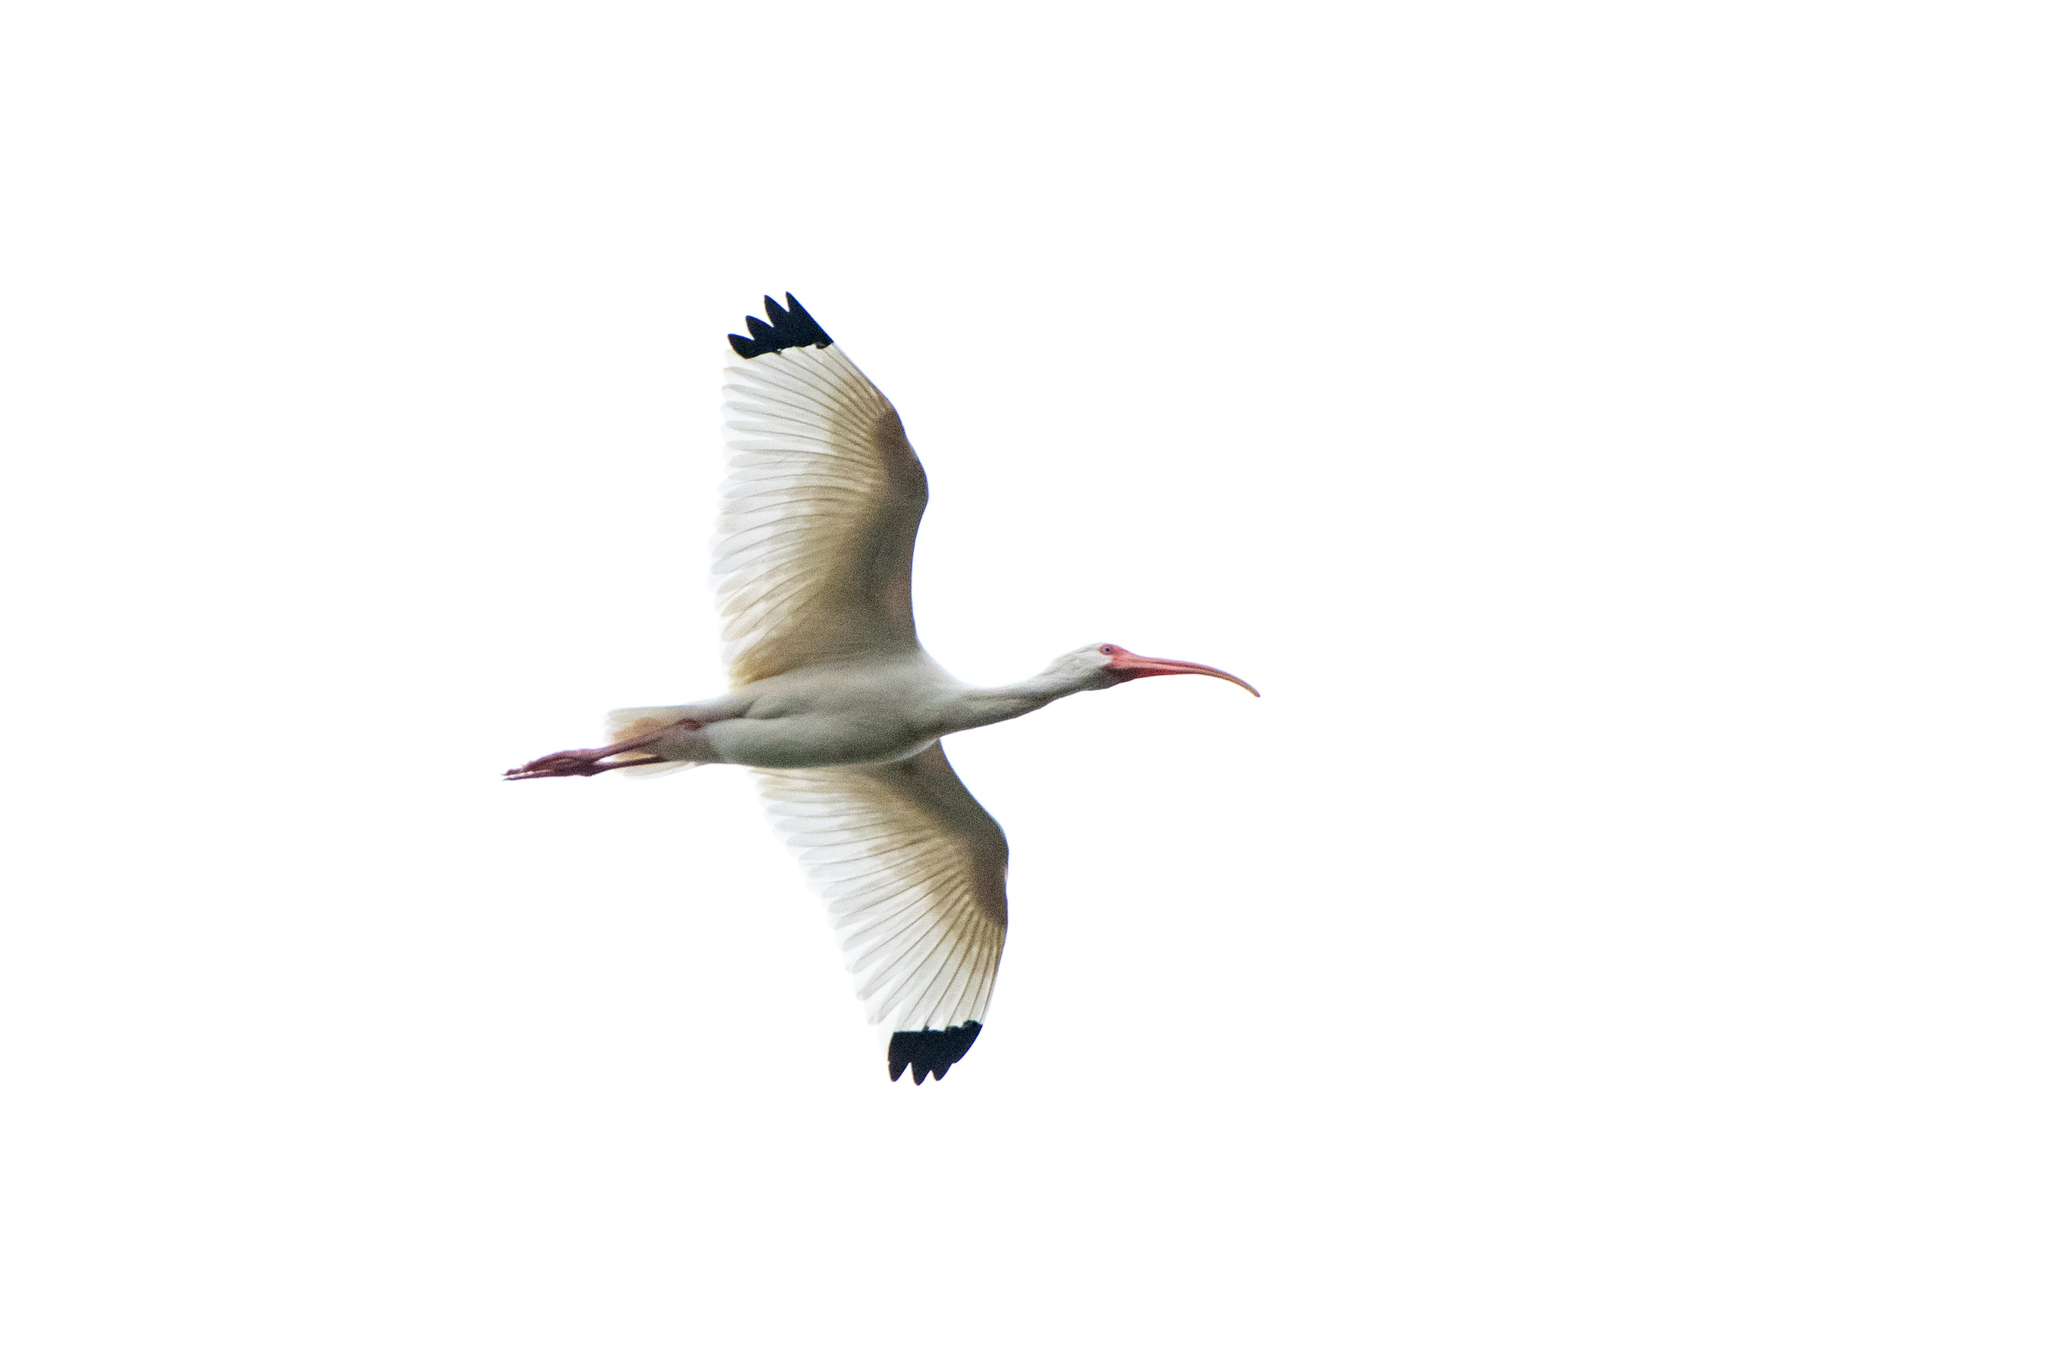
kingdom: Animalia
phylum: Chordata
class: Aves
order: Pelecaniformes
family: Threskiornithidae
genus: Eudocimus
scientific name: Eudocimus albus
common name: White ibis
